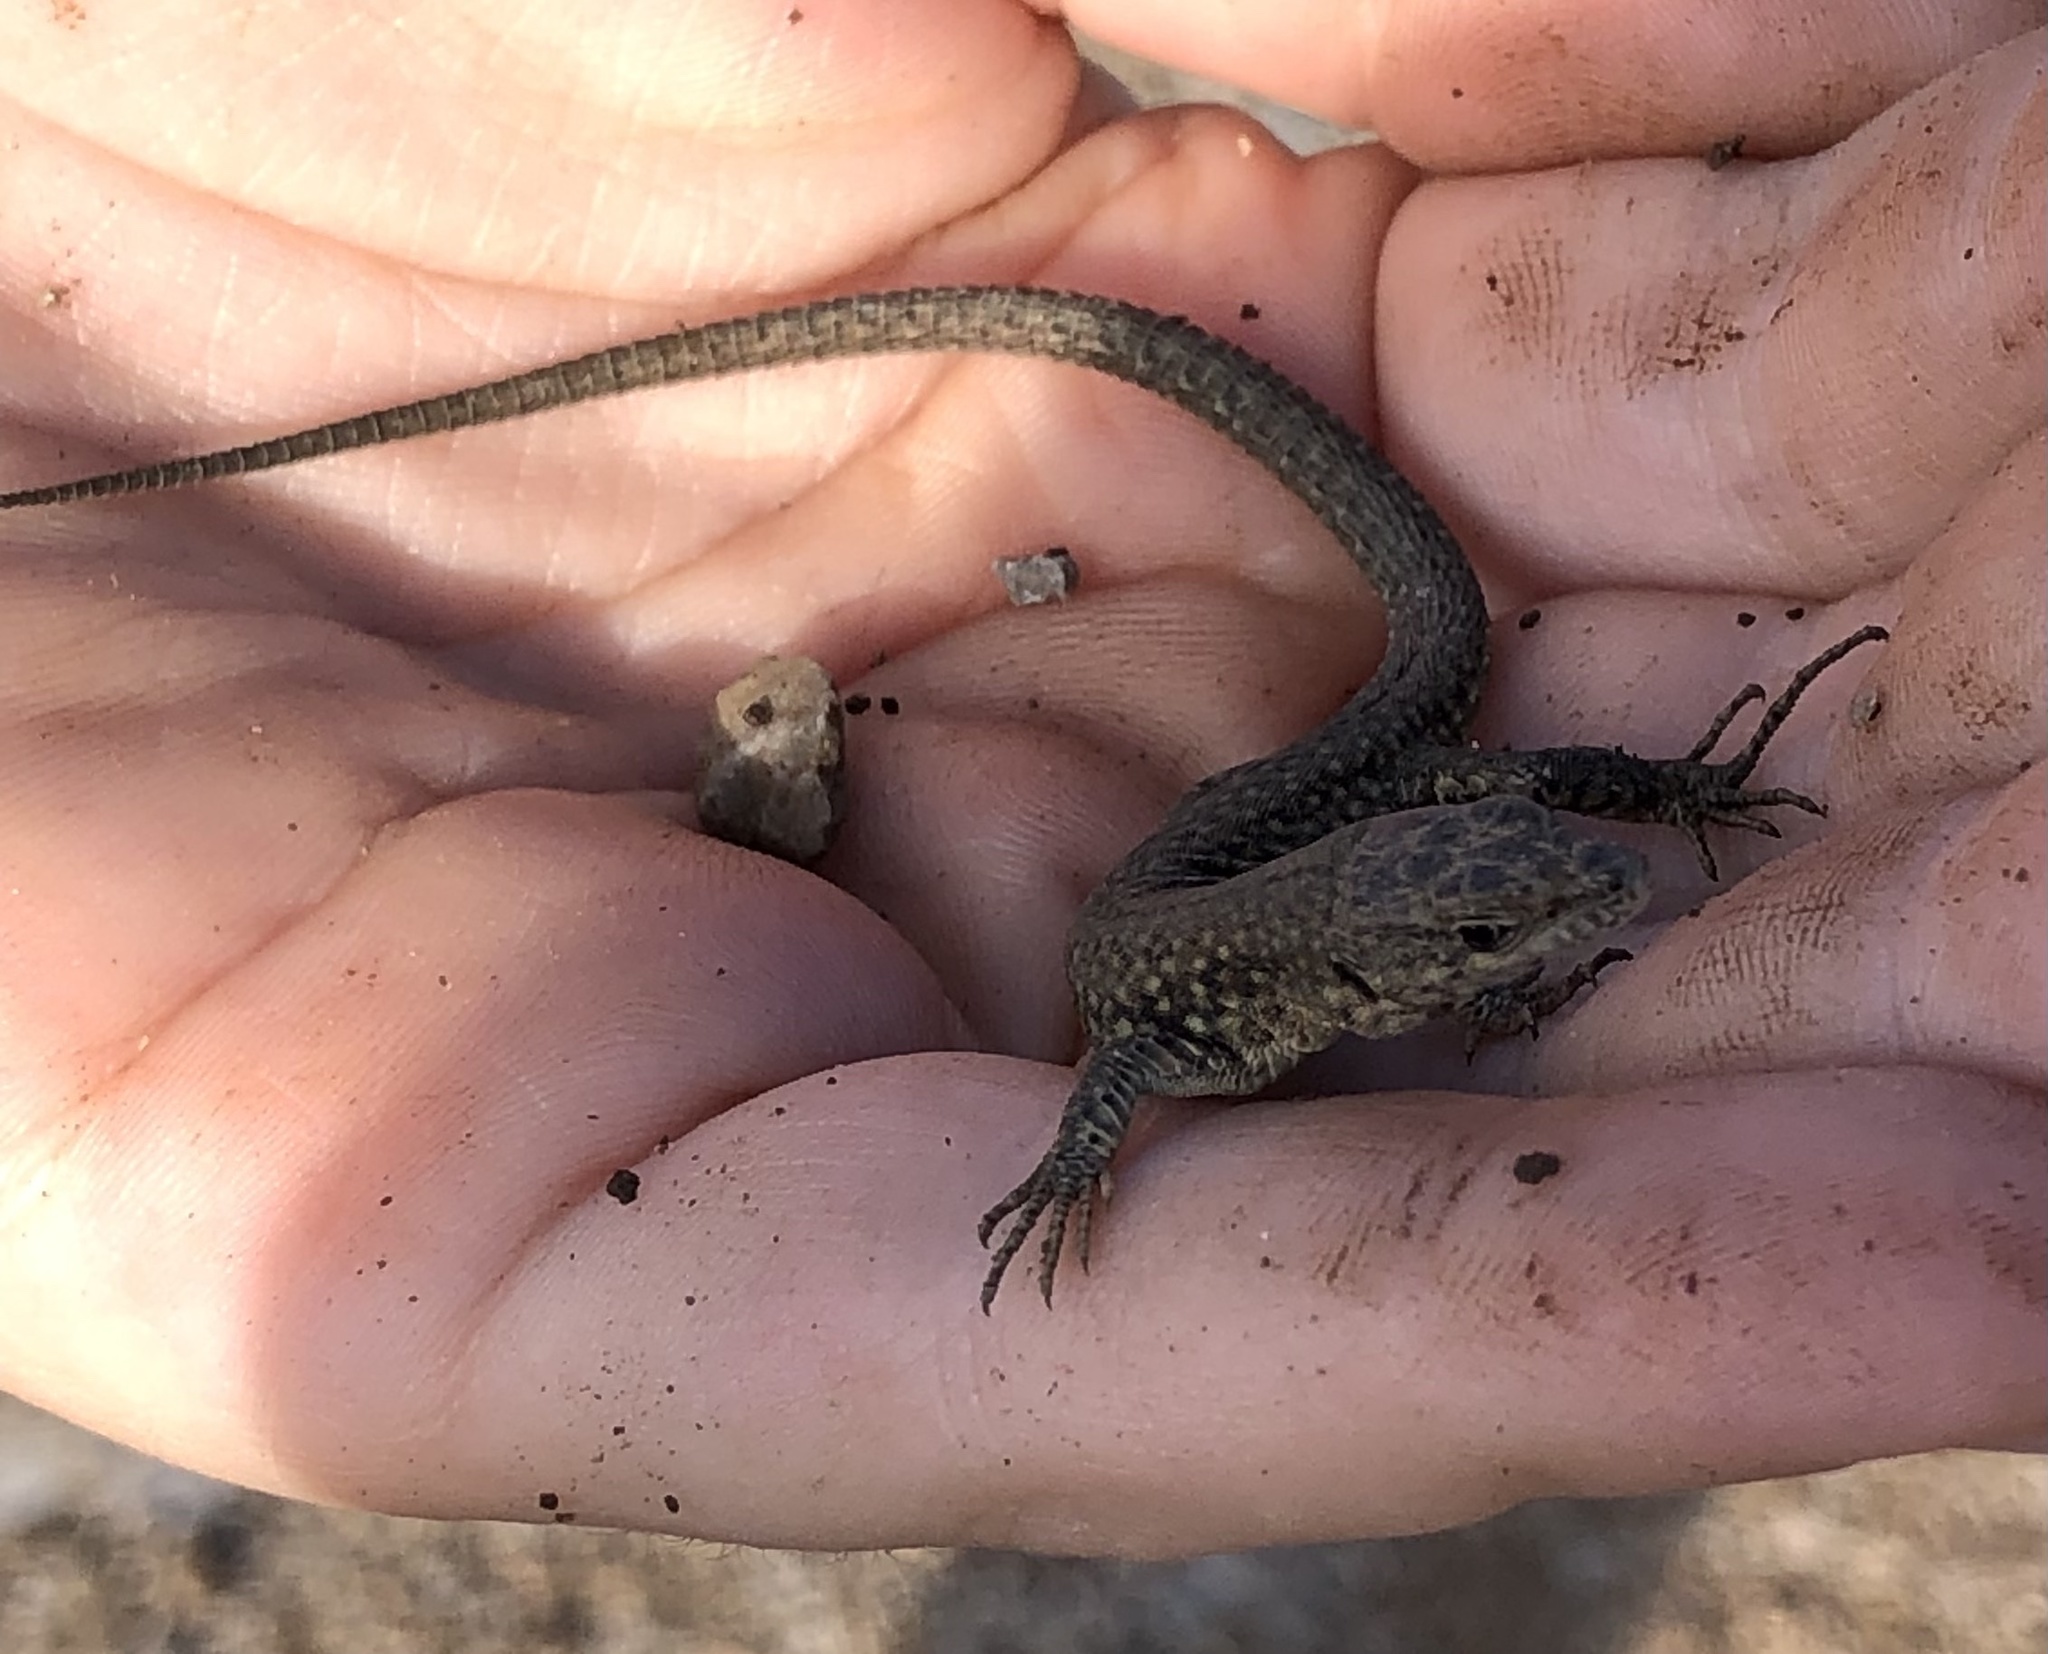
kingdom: Animalia
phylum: Chordata
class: Squamata
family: Lacertidae
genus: Podarcis
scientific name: Podarcis liolepis
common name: Catalonian wall lizard
